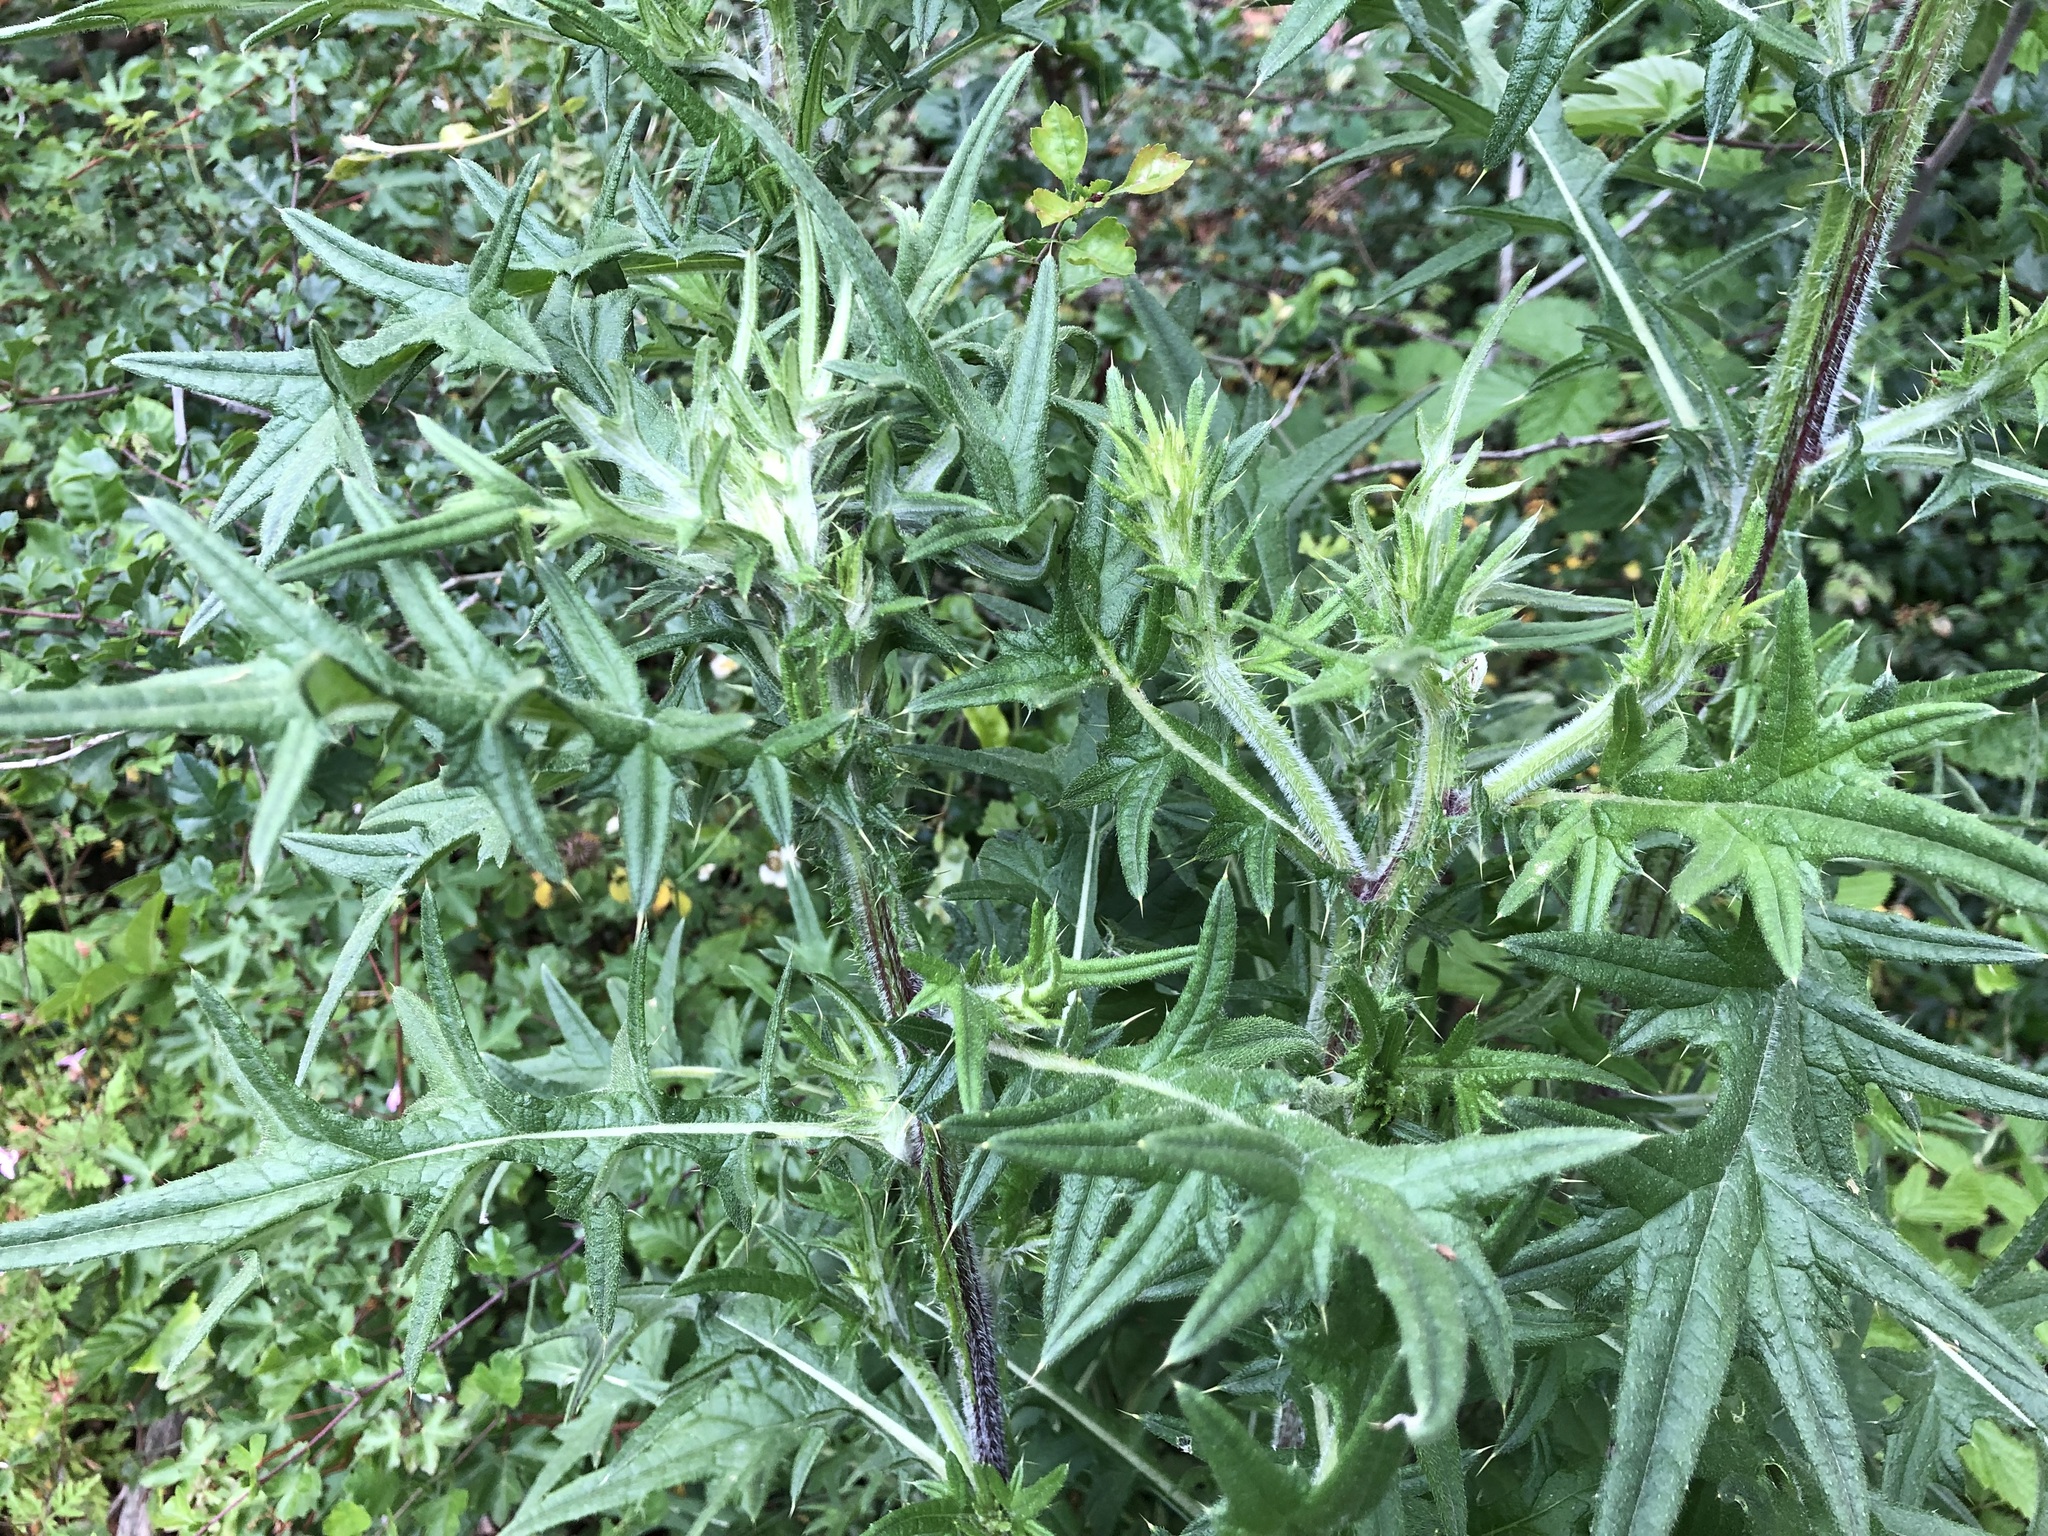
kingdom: Plantae
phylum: Tracheophyta
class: Magnoliopsida
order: Asterales
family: Asteraceae
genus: Cirsium
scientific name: Cirsium vulgare
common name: Bull thistle
